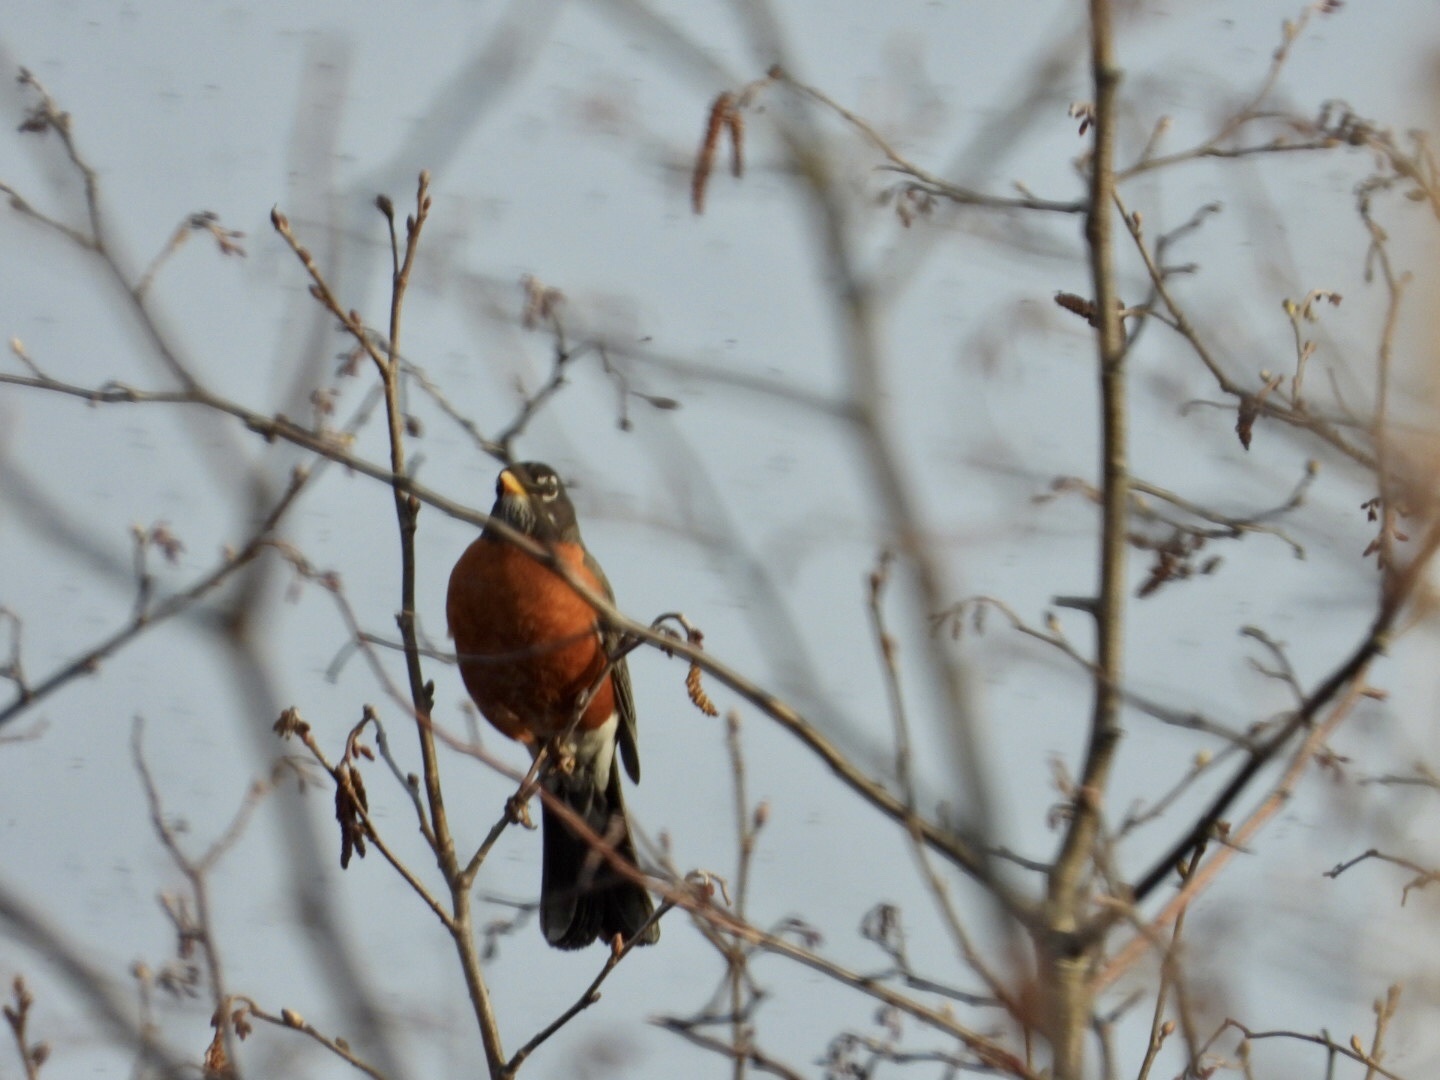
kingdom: Animalia
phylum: Chordata
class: Aves
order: Passeriformes
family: Turdidae
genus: Turdus
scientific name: Turdus migratorius
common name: American robin
